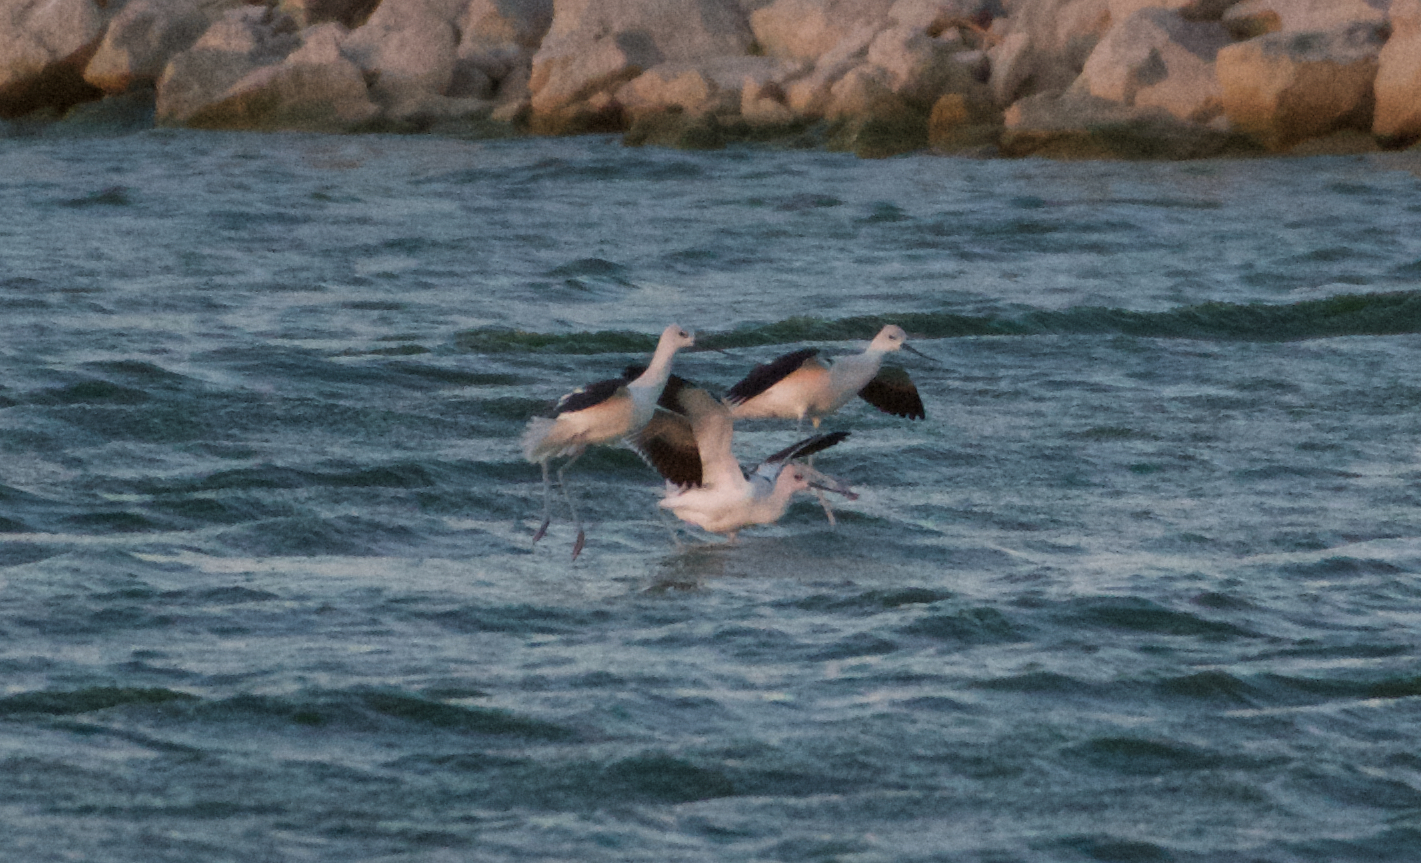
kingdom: Animalia
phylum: Chordata
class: Aves
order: Charadriiformes
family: Recurvirostridae
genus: Recurvirostra
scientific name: Recurvirostra americana
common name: American avocet
